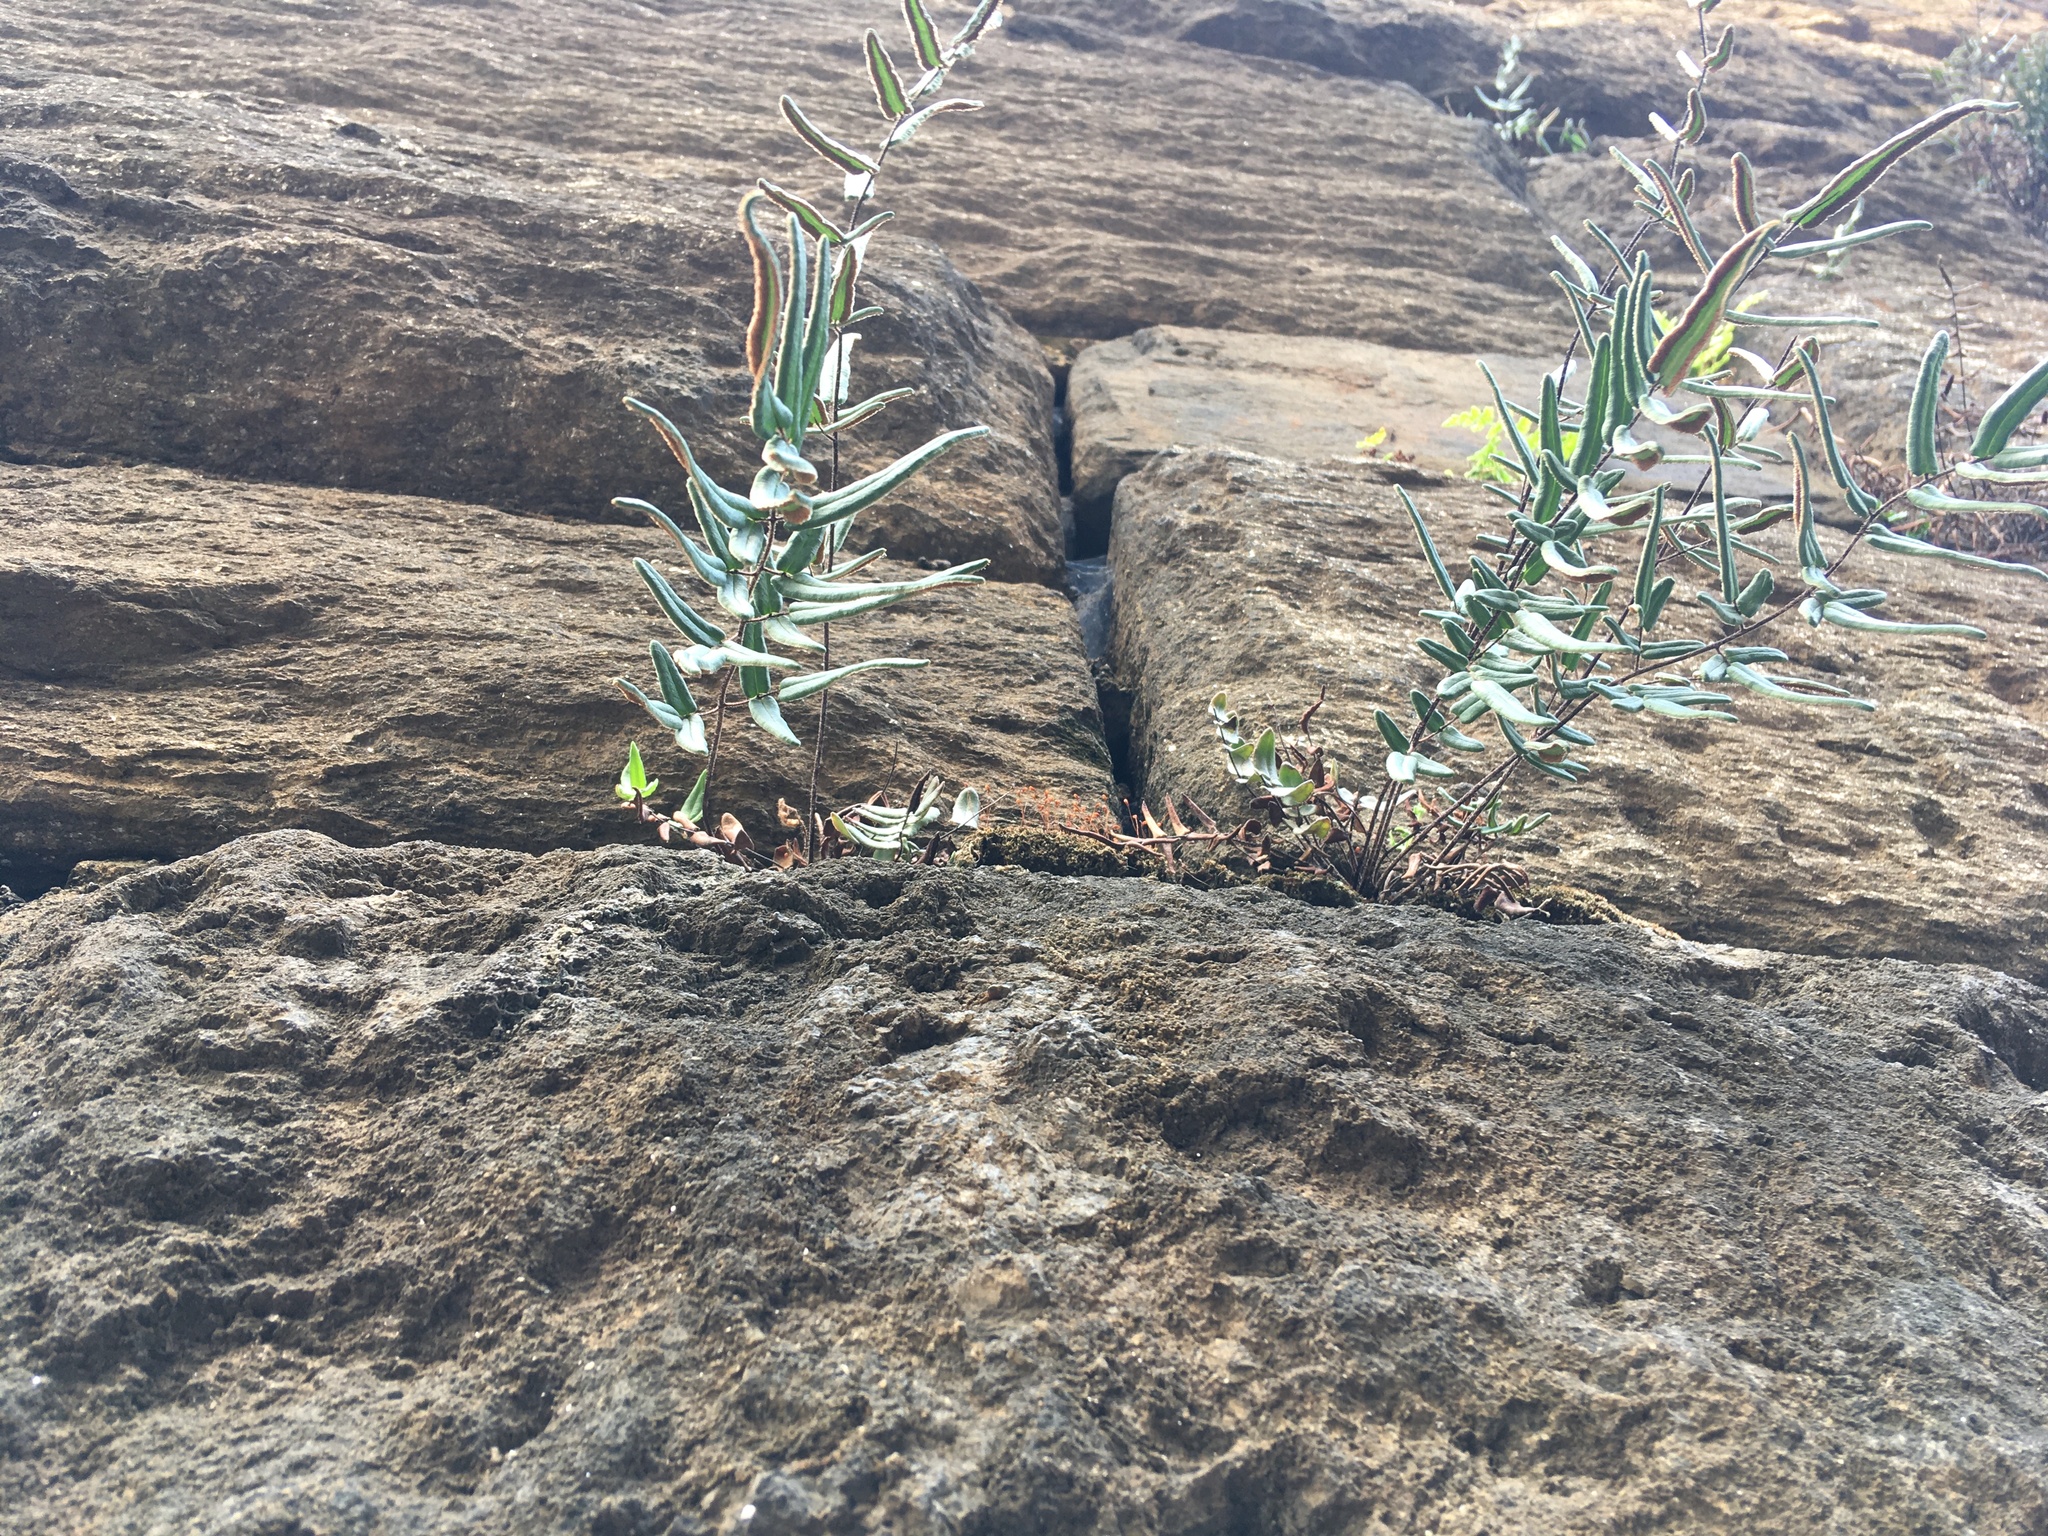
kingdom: Plantae
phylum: Tracheophyta
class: Polypodiopsida
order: Polypodiales
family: Pteridaceae
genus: Pellaea
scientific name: Pellaea atropurpurea
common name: Hairy cliffbrake
